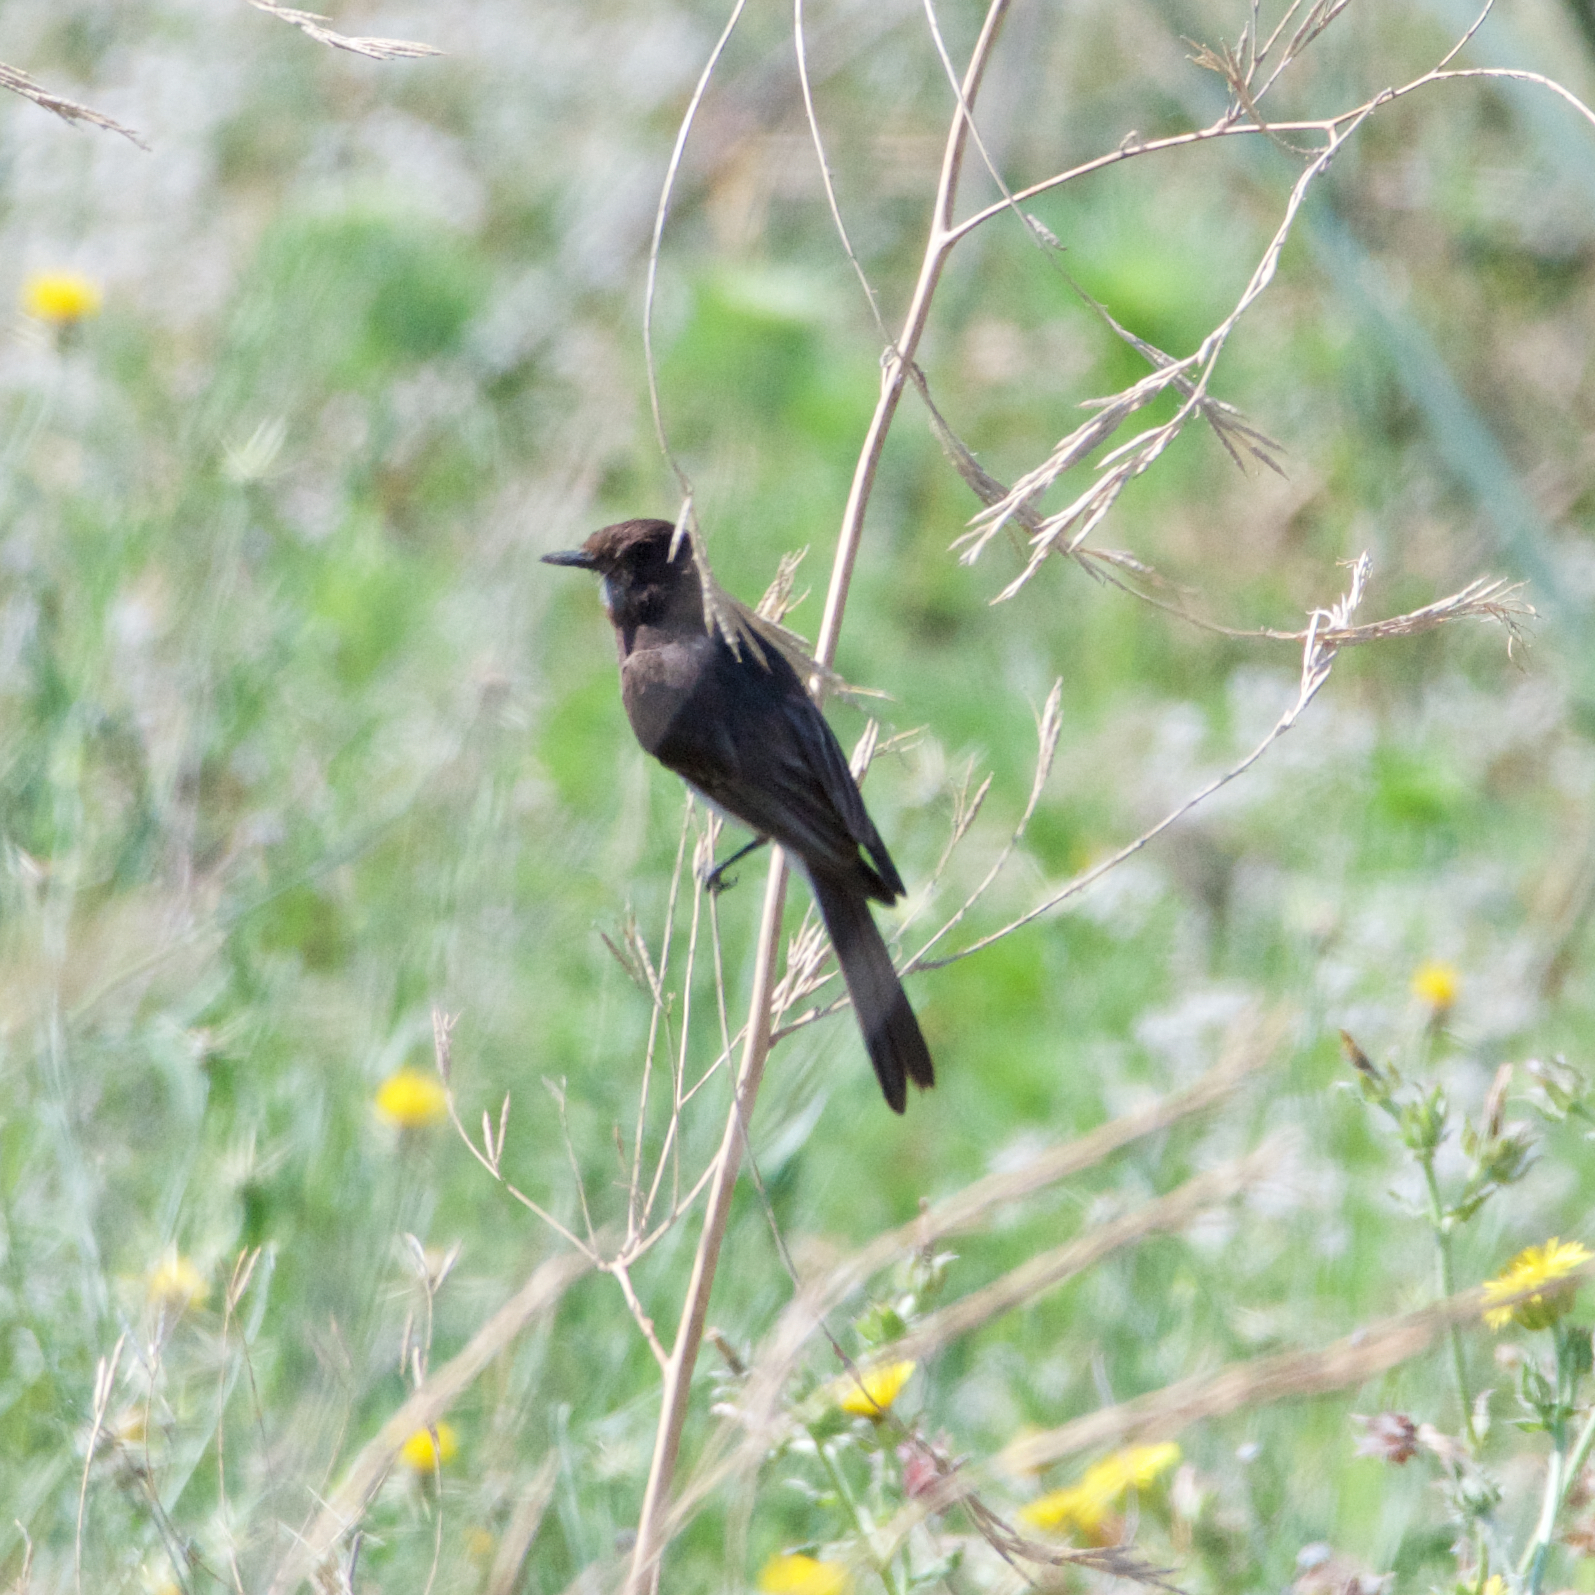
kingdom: Animalia
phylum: Chordata
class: Aves
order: Passeriformes
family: Tyrannidae
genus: Sayornis
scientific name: Sayornis nigricans
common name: Black phoebe
